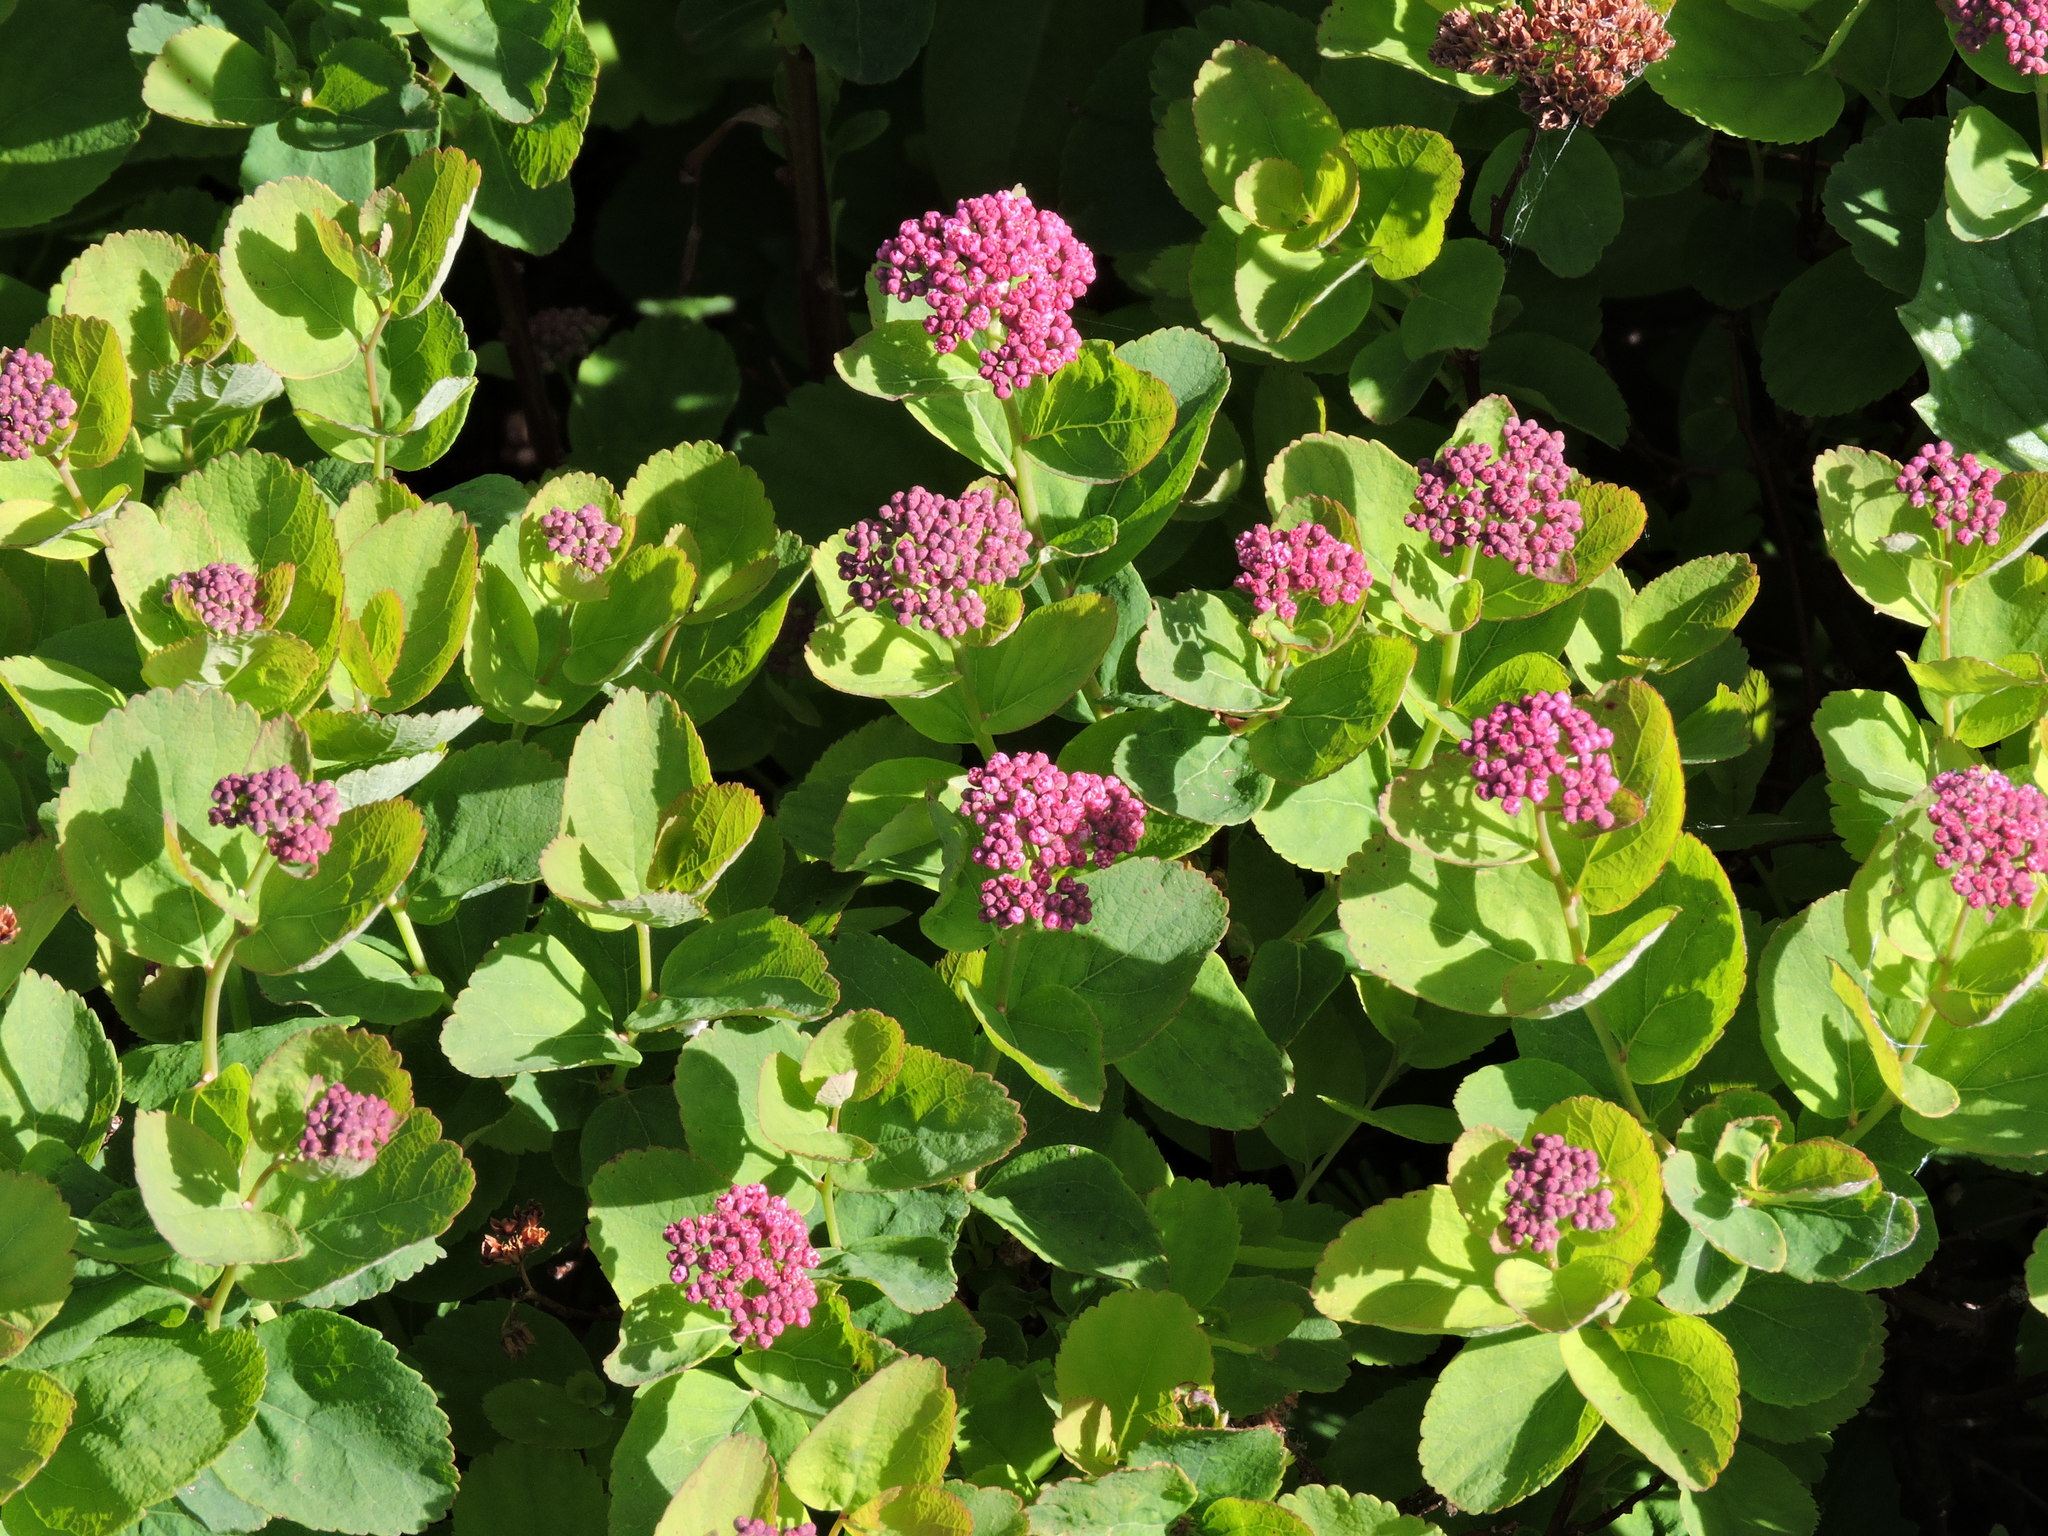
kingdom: Plantae
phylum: Tracheophyta
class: Magnoliopsida
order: Rosales
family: Rosaceae
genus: Spiraea
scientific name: Spiraea splendens
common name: Subalpine meadowsweet
